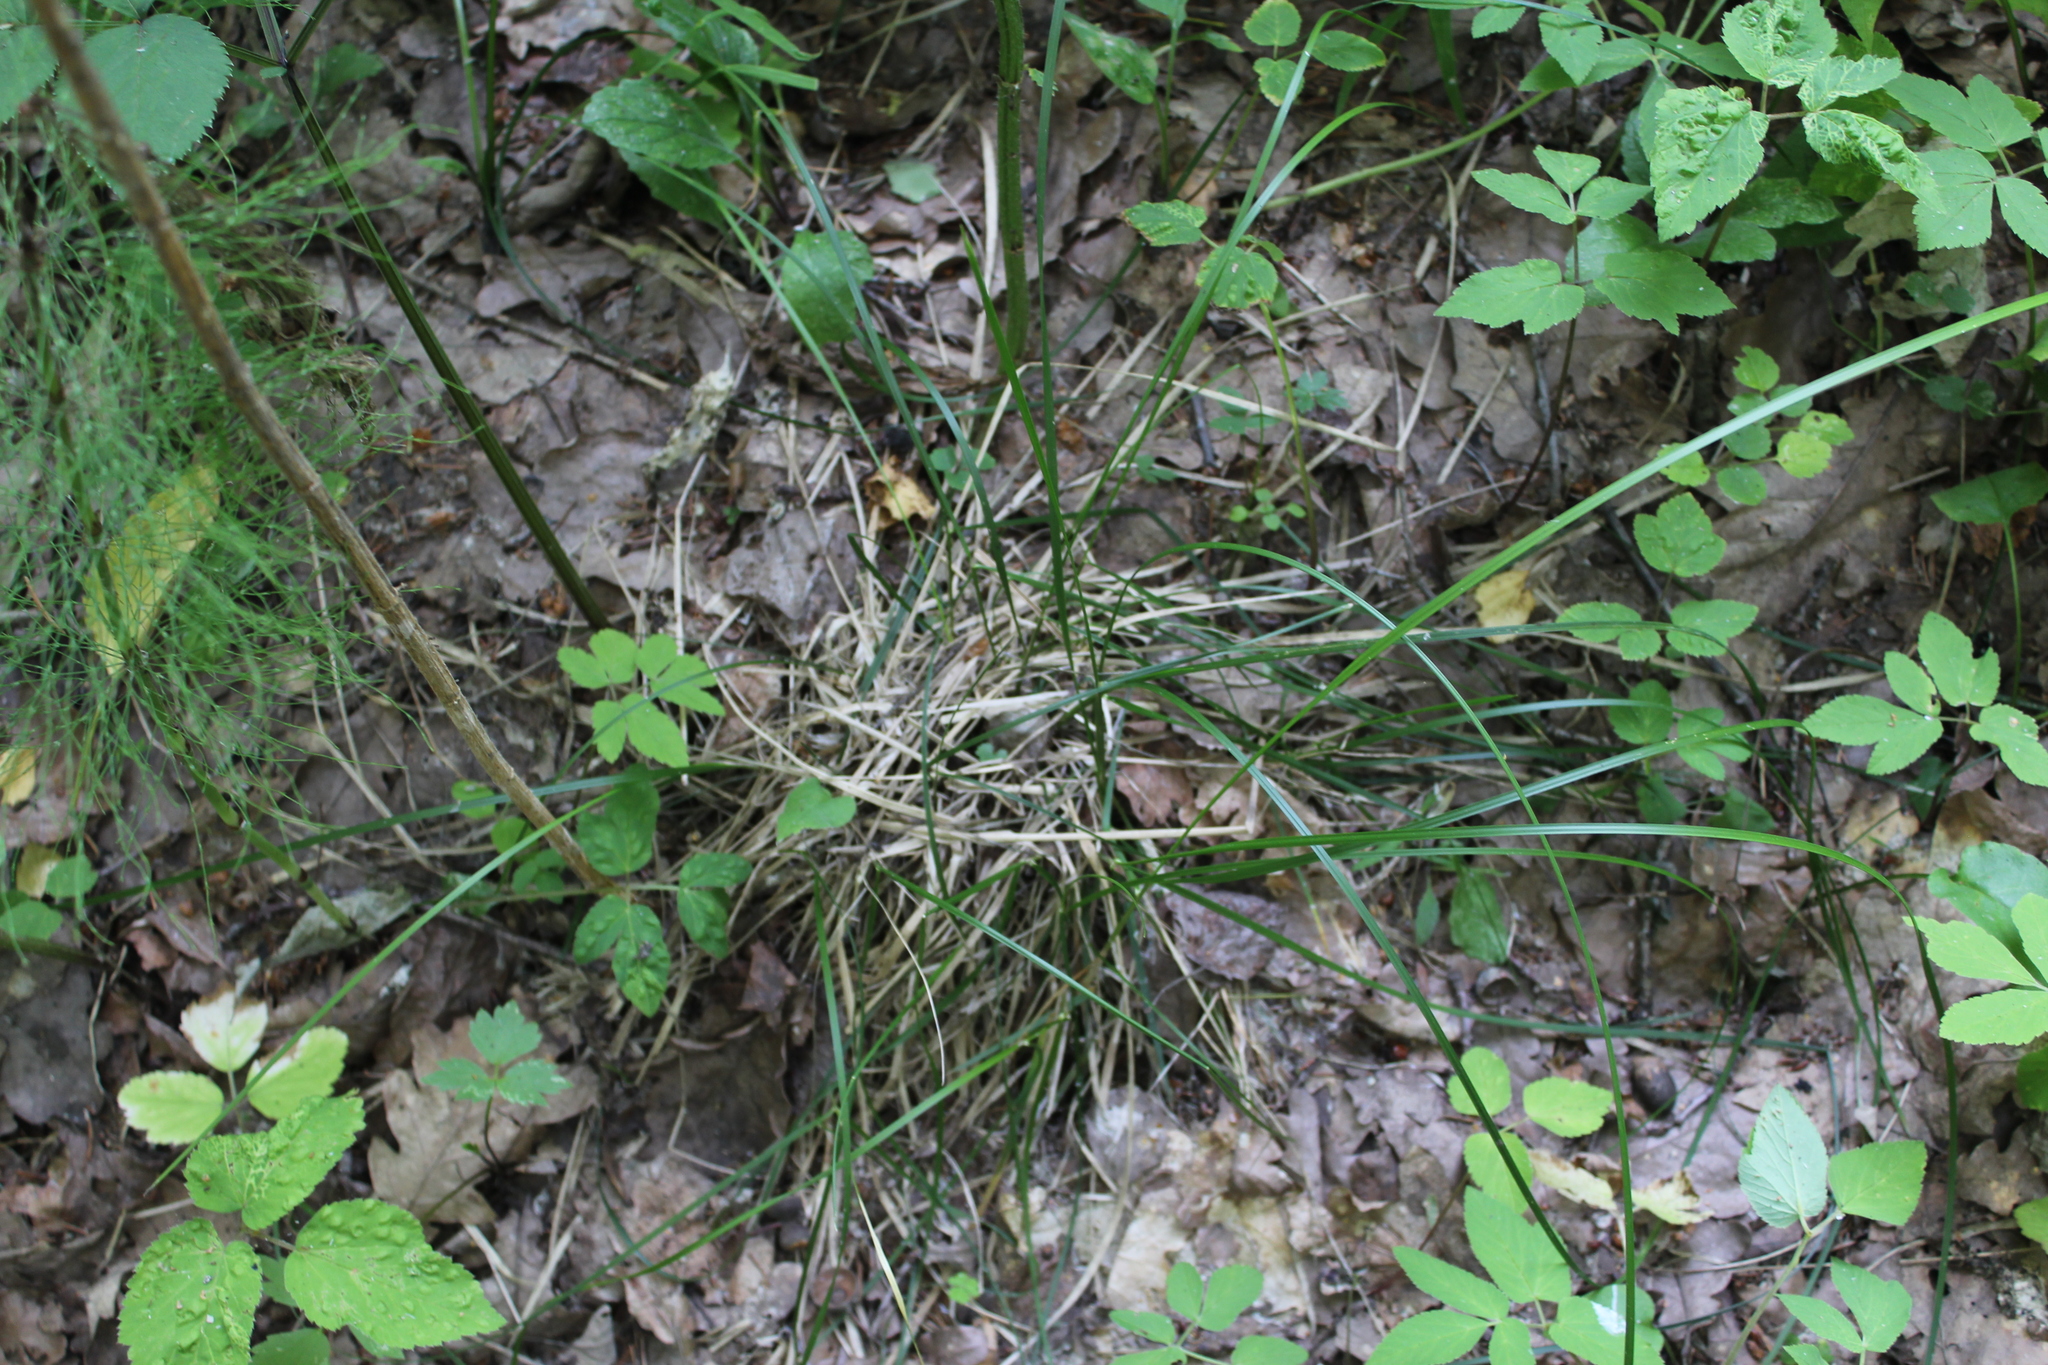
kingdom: Plantae
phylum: Tracheophyta
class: Liliopsida
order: Poales
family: Poaceae
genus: Deschampsia
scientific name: Deschampsia cespitosa
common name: Tufted hair-grass
